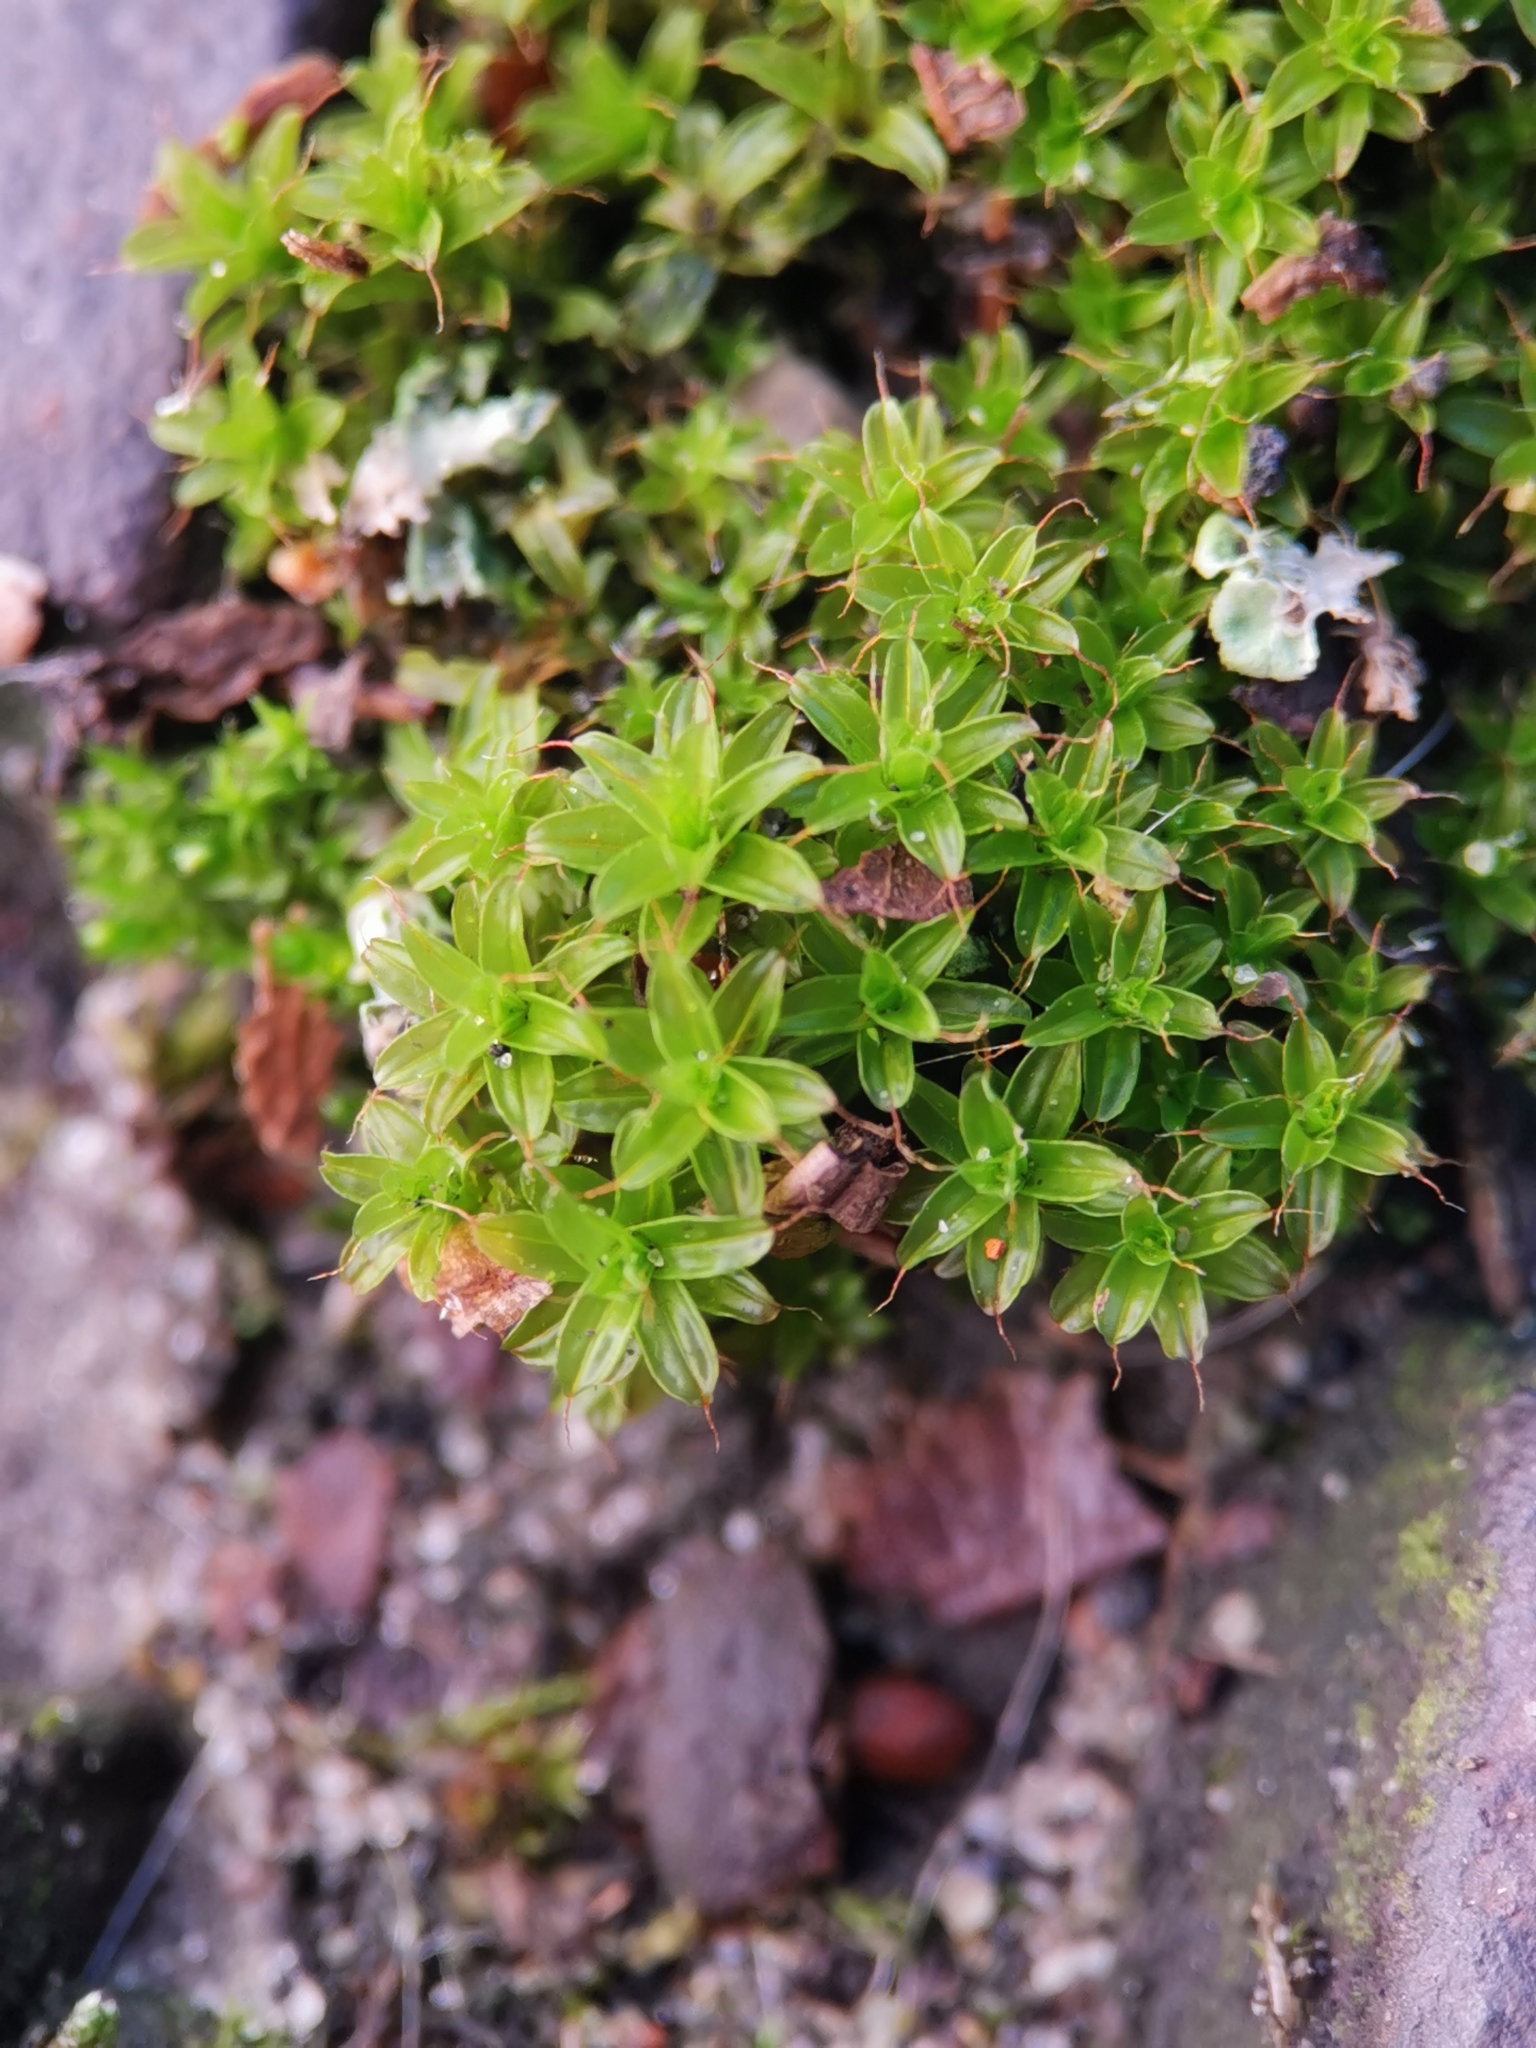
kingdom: Plantae
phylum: Bryophyta
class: Bryopsida
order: Pottiales
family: Pottiaceae
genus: Syntrichia
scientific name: Syntrichia ruralis
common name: Sidewalk screw moss
